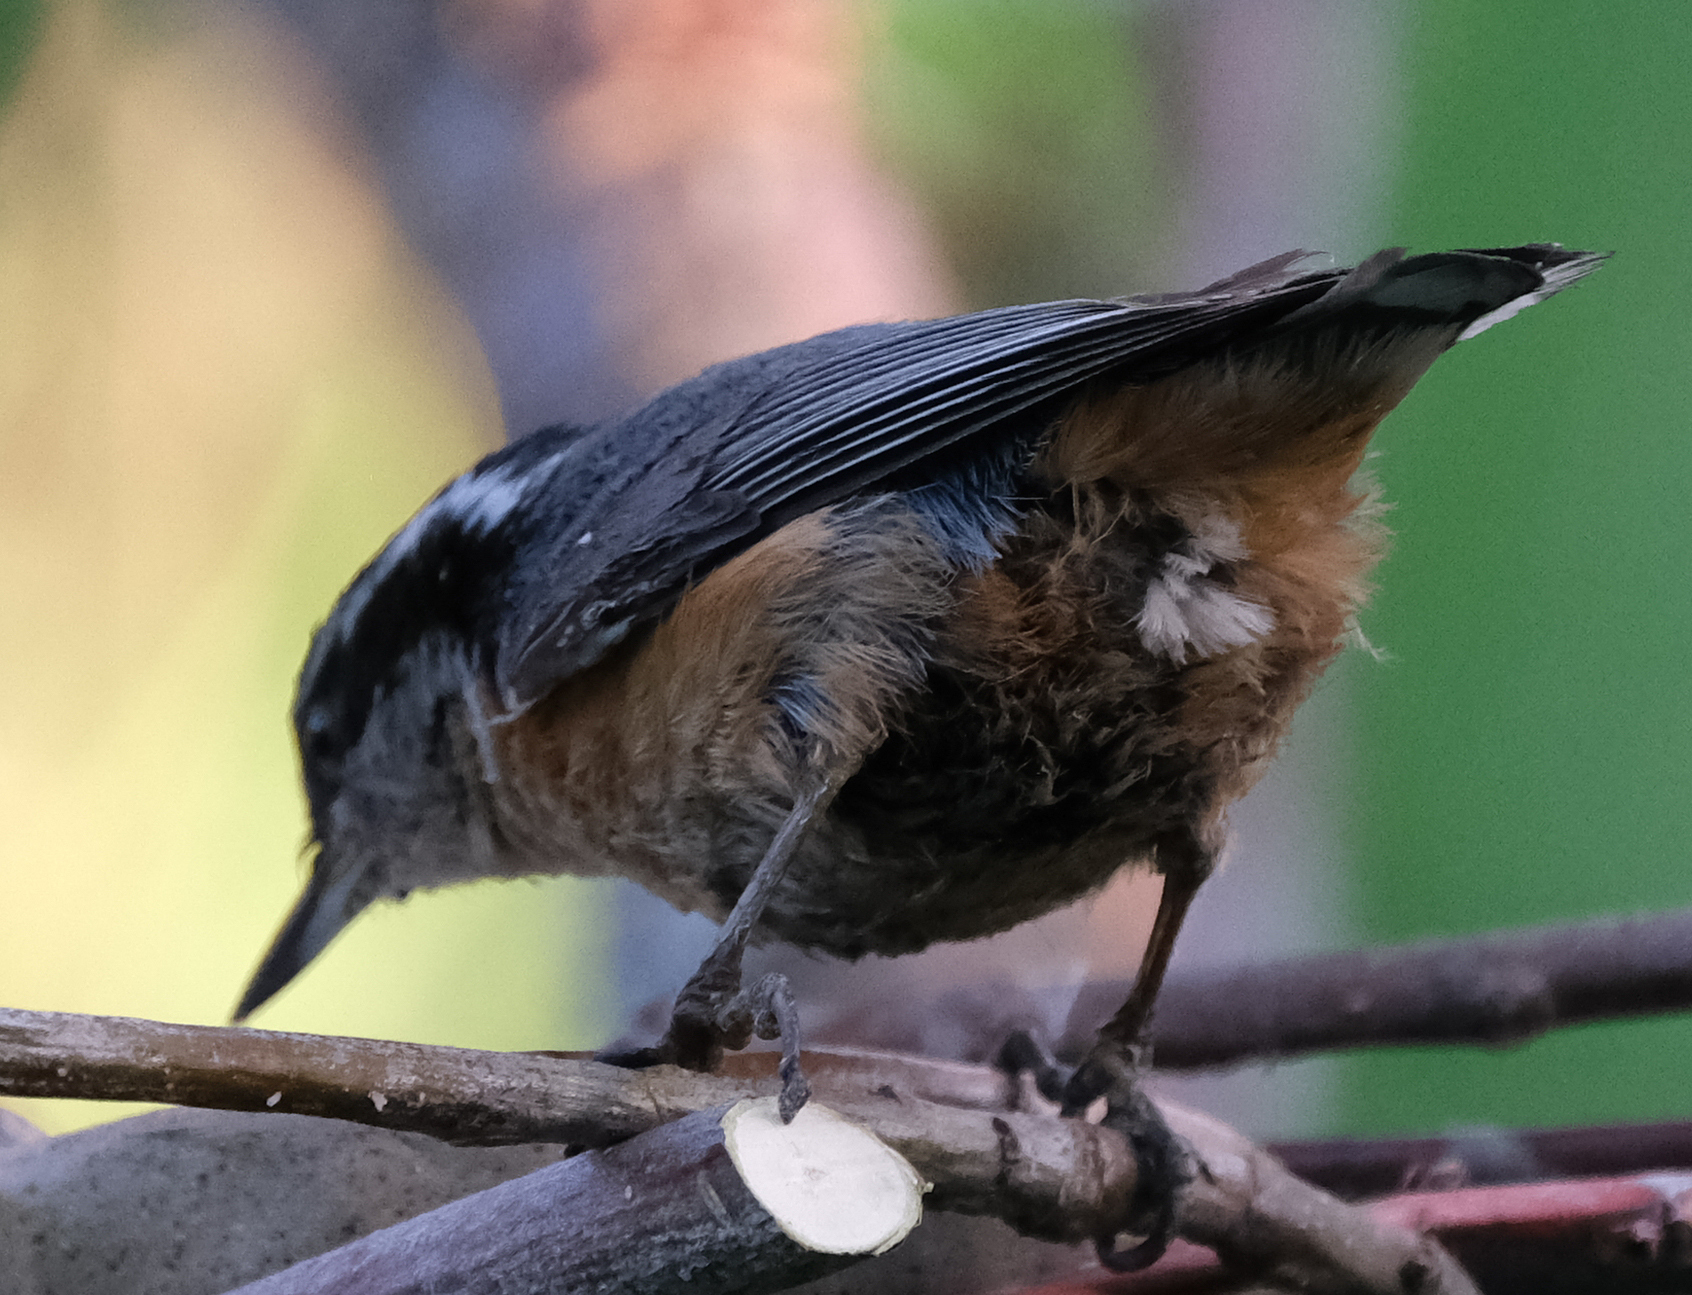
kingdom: Animalia
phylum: Chordata
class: Aves
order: Passeriformes
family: Sittidae
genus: Sitta
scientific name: Sitta canadensis
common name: Red-breasted nuthatch
